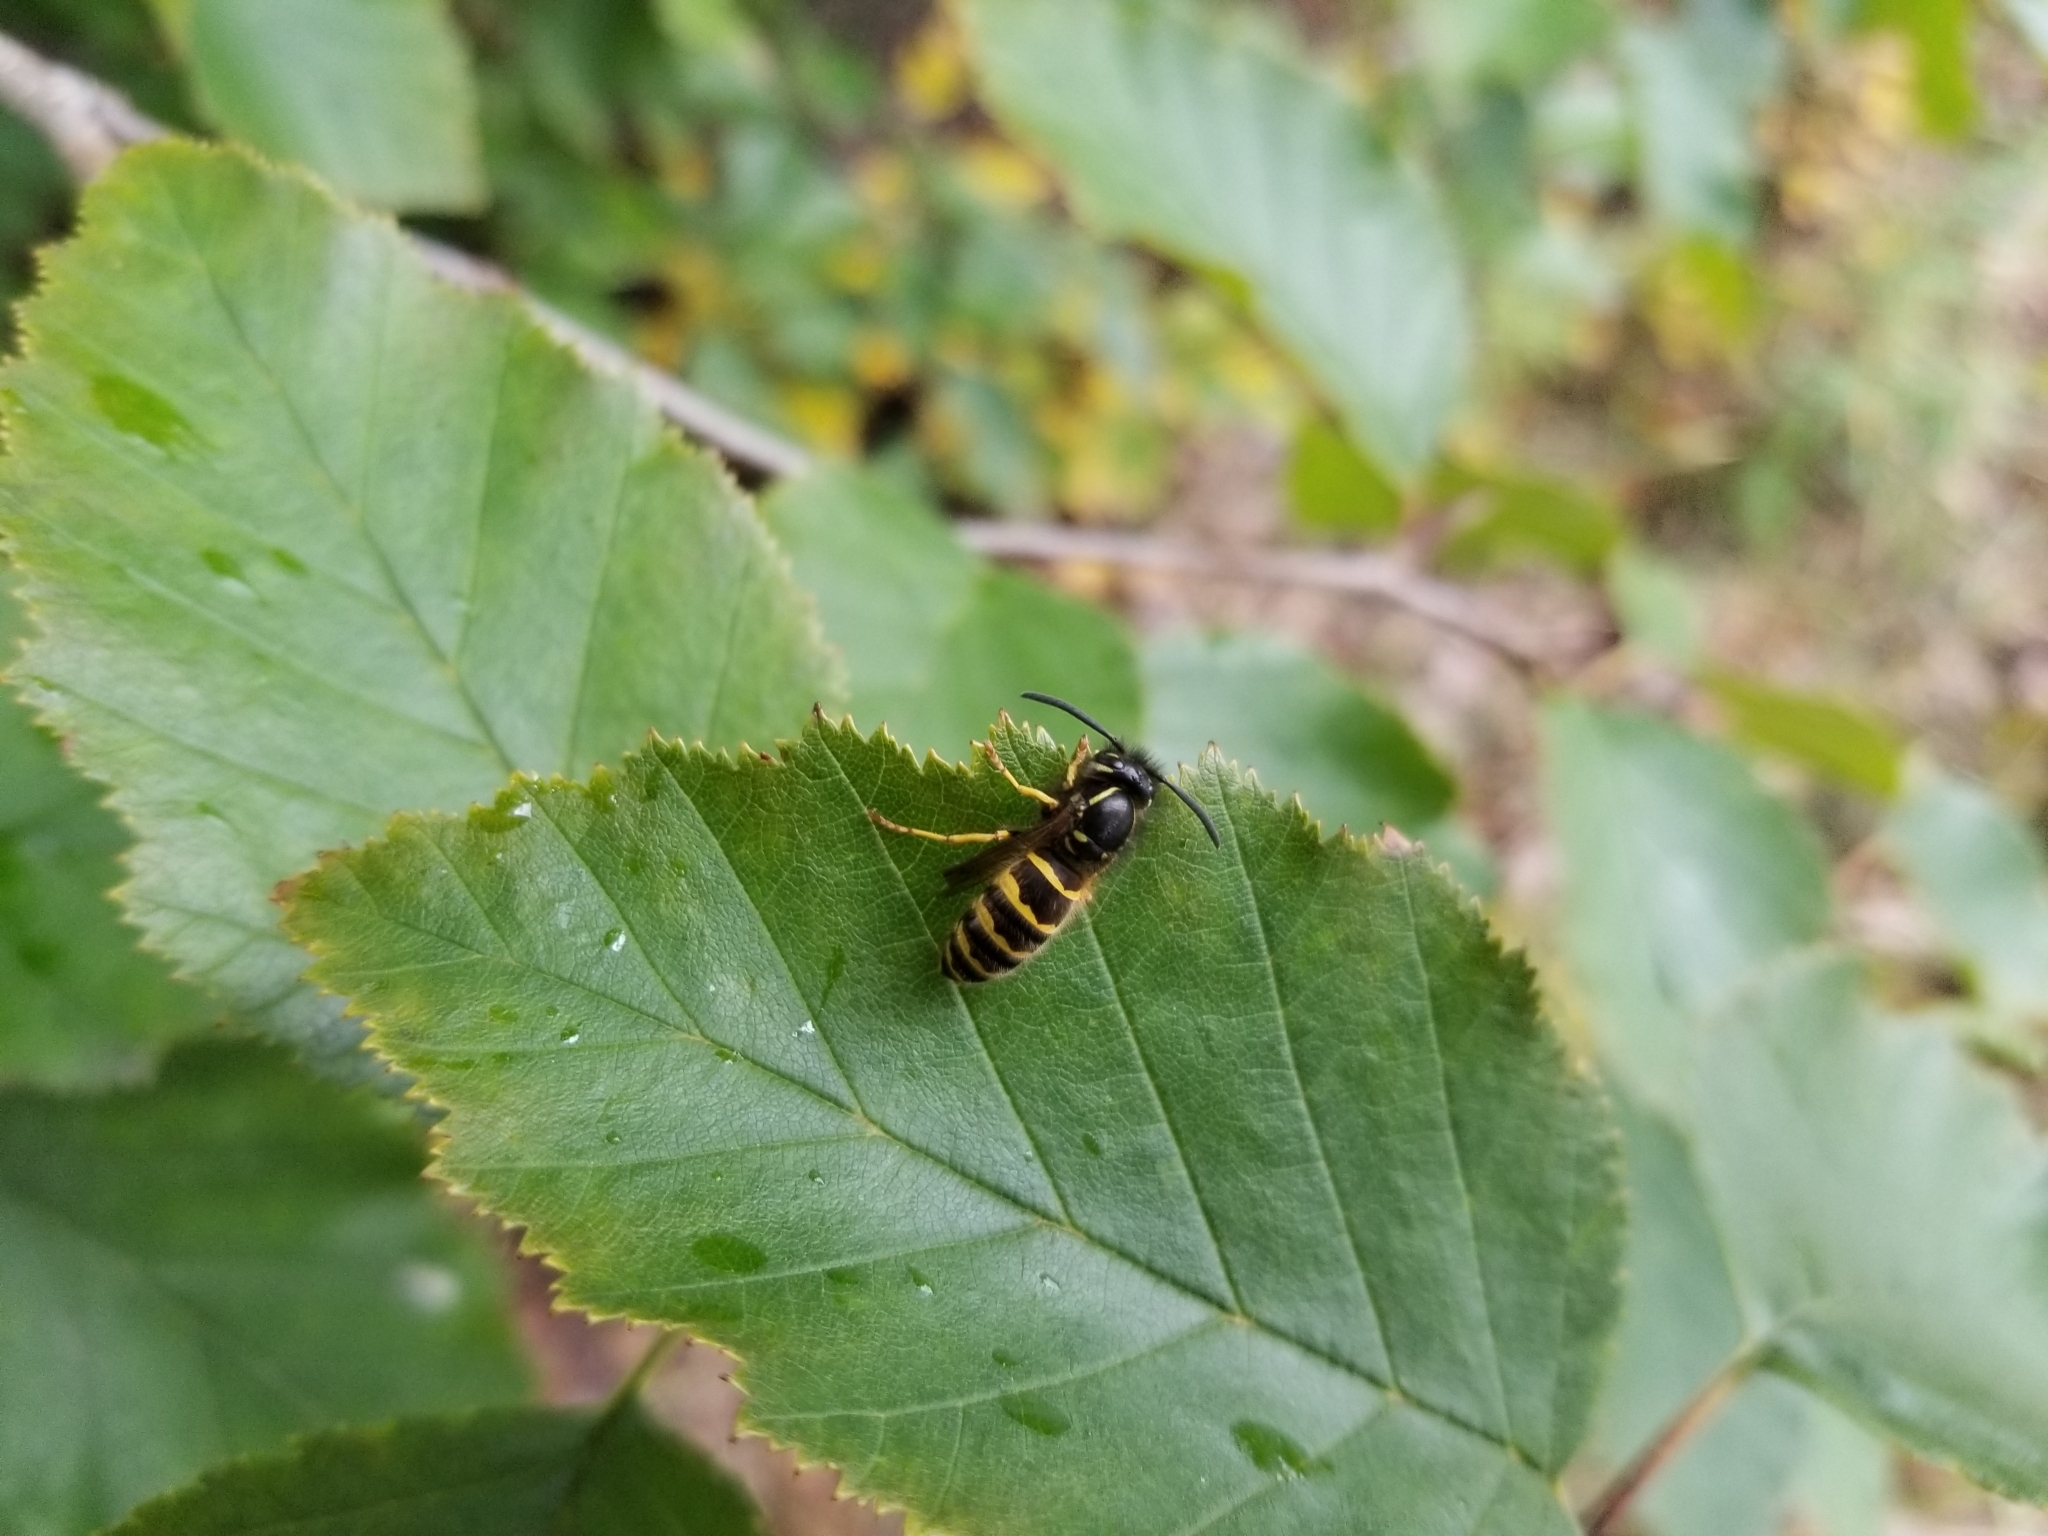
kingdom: Animalia
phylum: Arthropoda
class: Insecta
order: Hymenoptera
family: Vespidae
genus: Vespula
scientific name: Vespula alascensis
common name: Alaska yellowjacket
